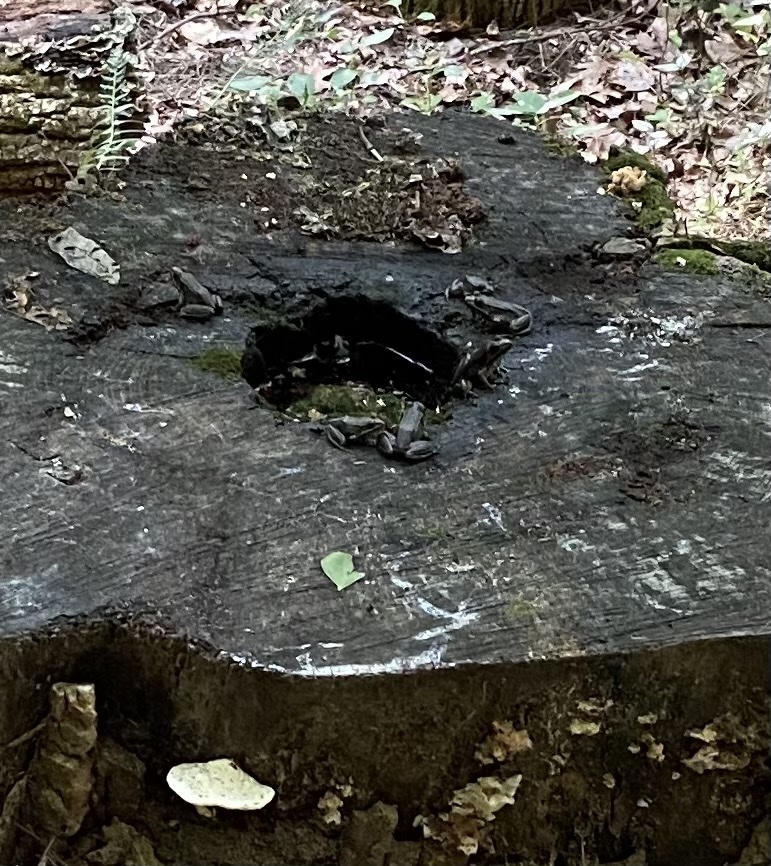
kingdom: Animalia
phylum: Chordata
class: Amphibia
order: Anura
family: Ranidae
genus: Lithobates
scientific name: Lithobates clamitans
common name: Green frog
